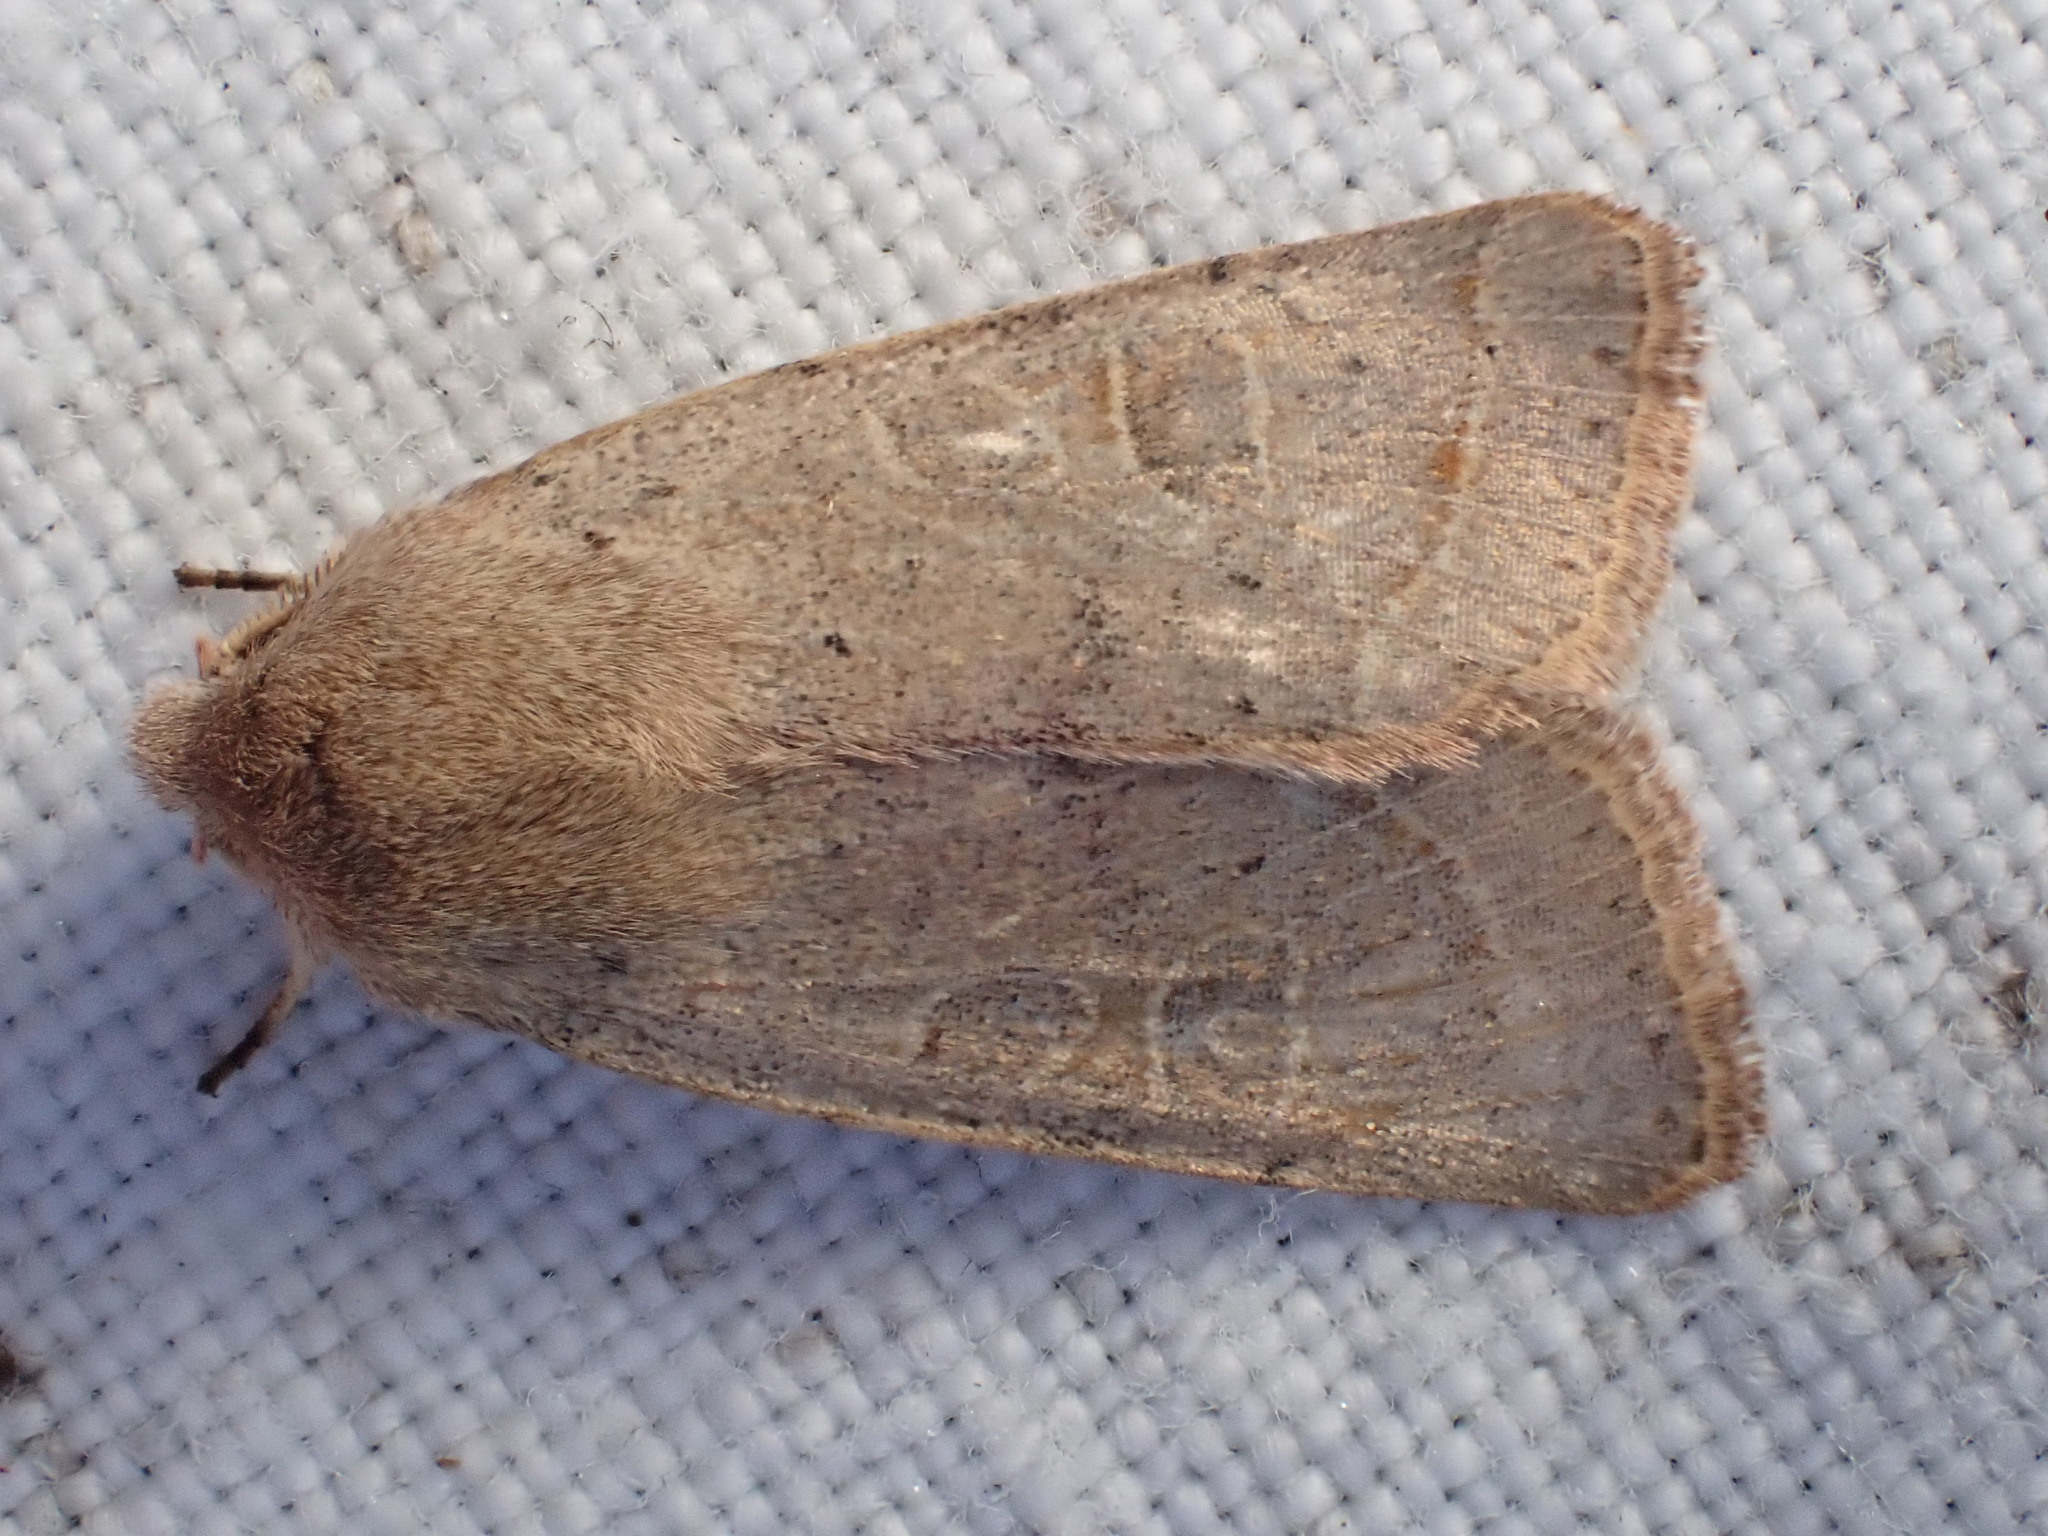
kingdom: Animalia
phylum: Arthropoda
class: Insecta
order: Lepidoptera
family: Noctuidae
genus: Orthosia
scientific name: Orthosia cerasi
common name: Common quaker
